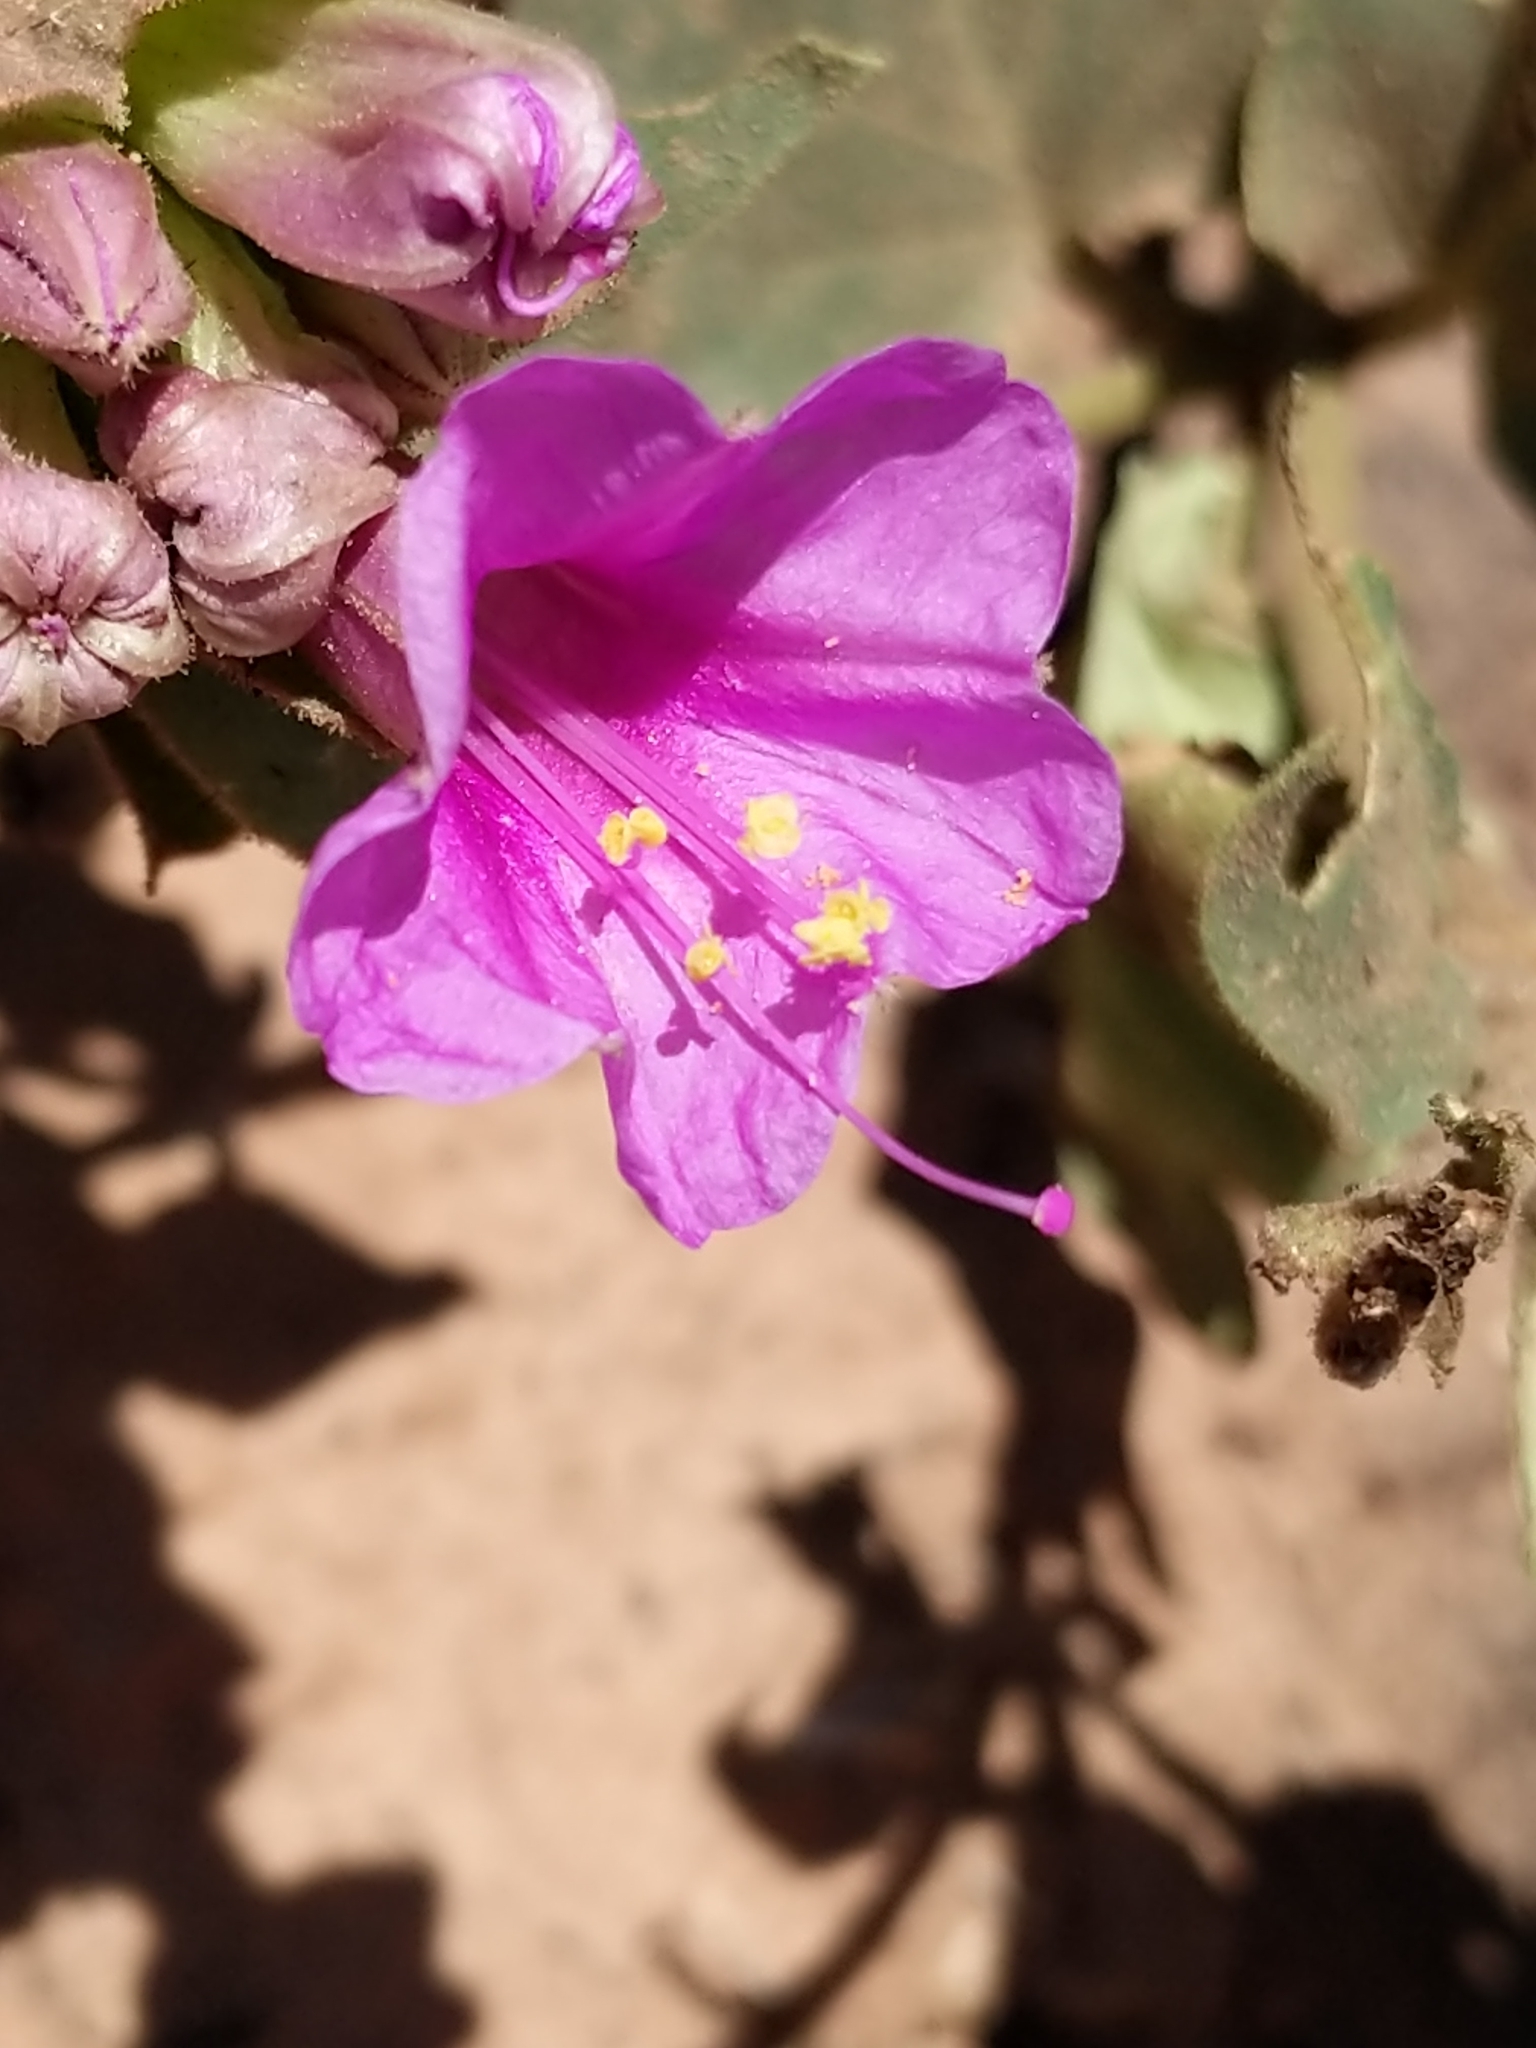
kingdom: Plantae
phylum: Tracheophyta
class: Magnoliopsida
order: Caryophyllales
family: Nyctaginaceae
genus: Mirabilis
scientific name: Mirabilis multiflora
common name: Froebel's four-o'clock
